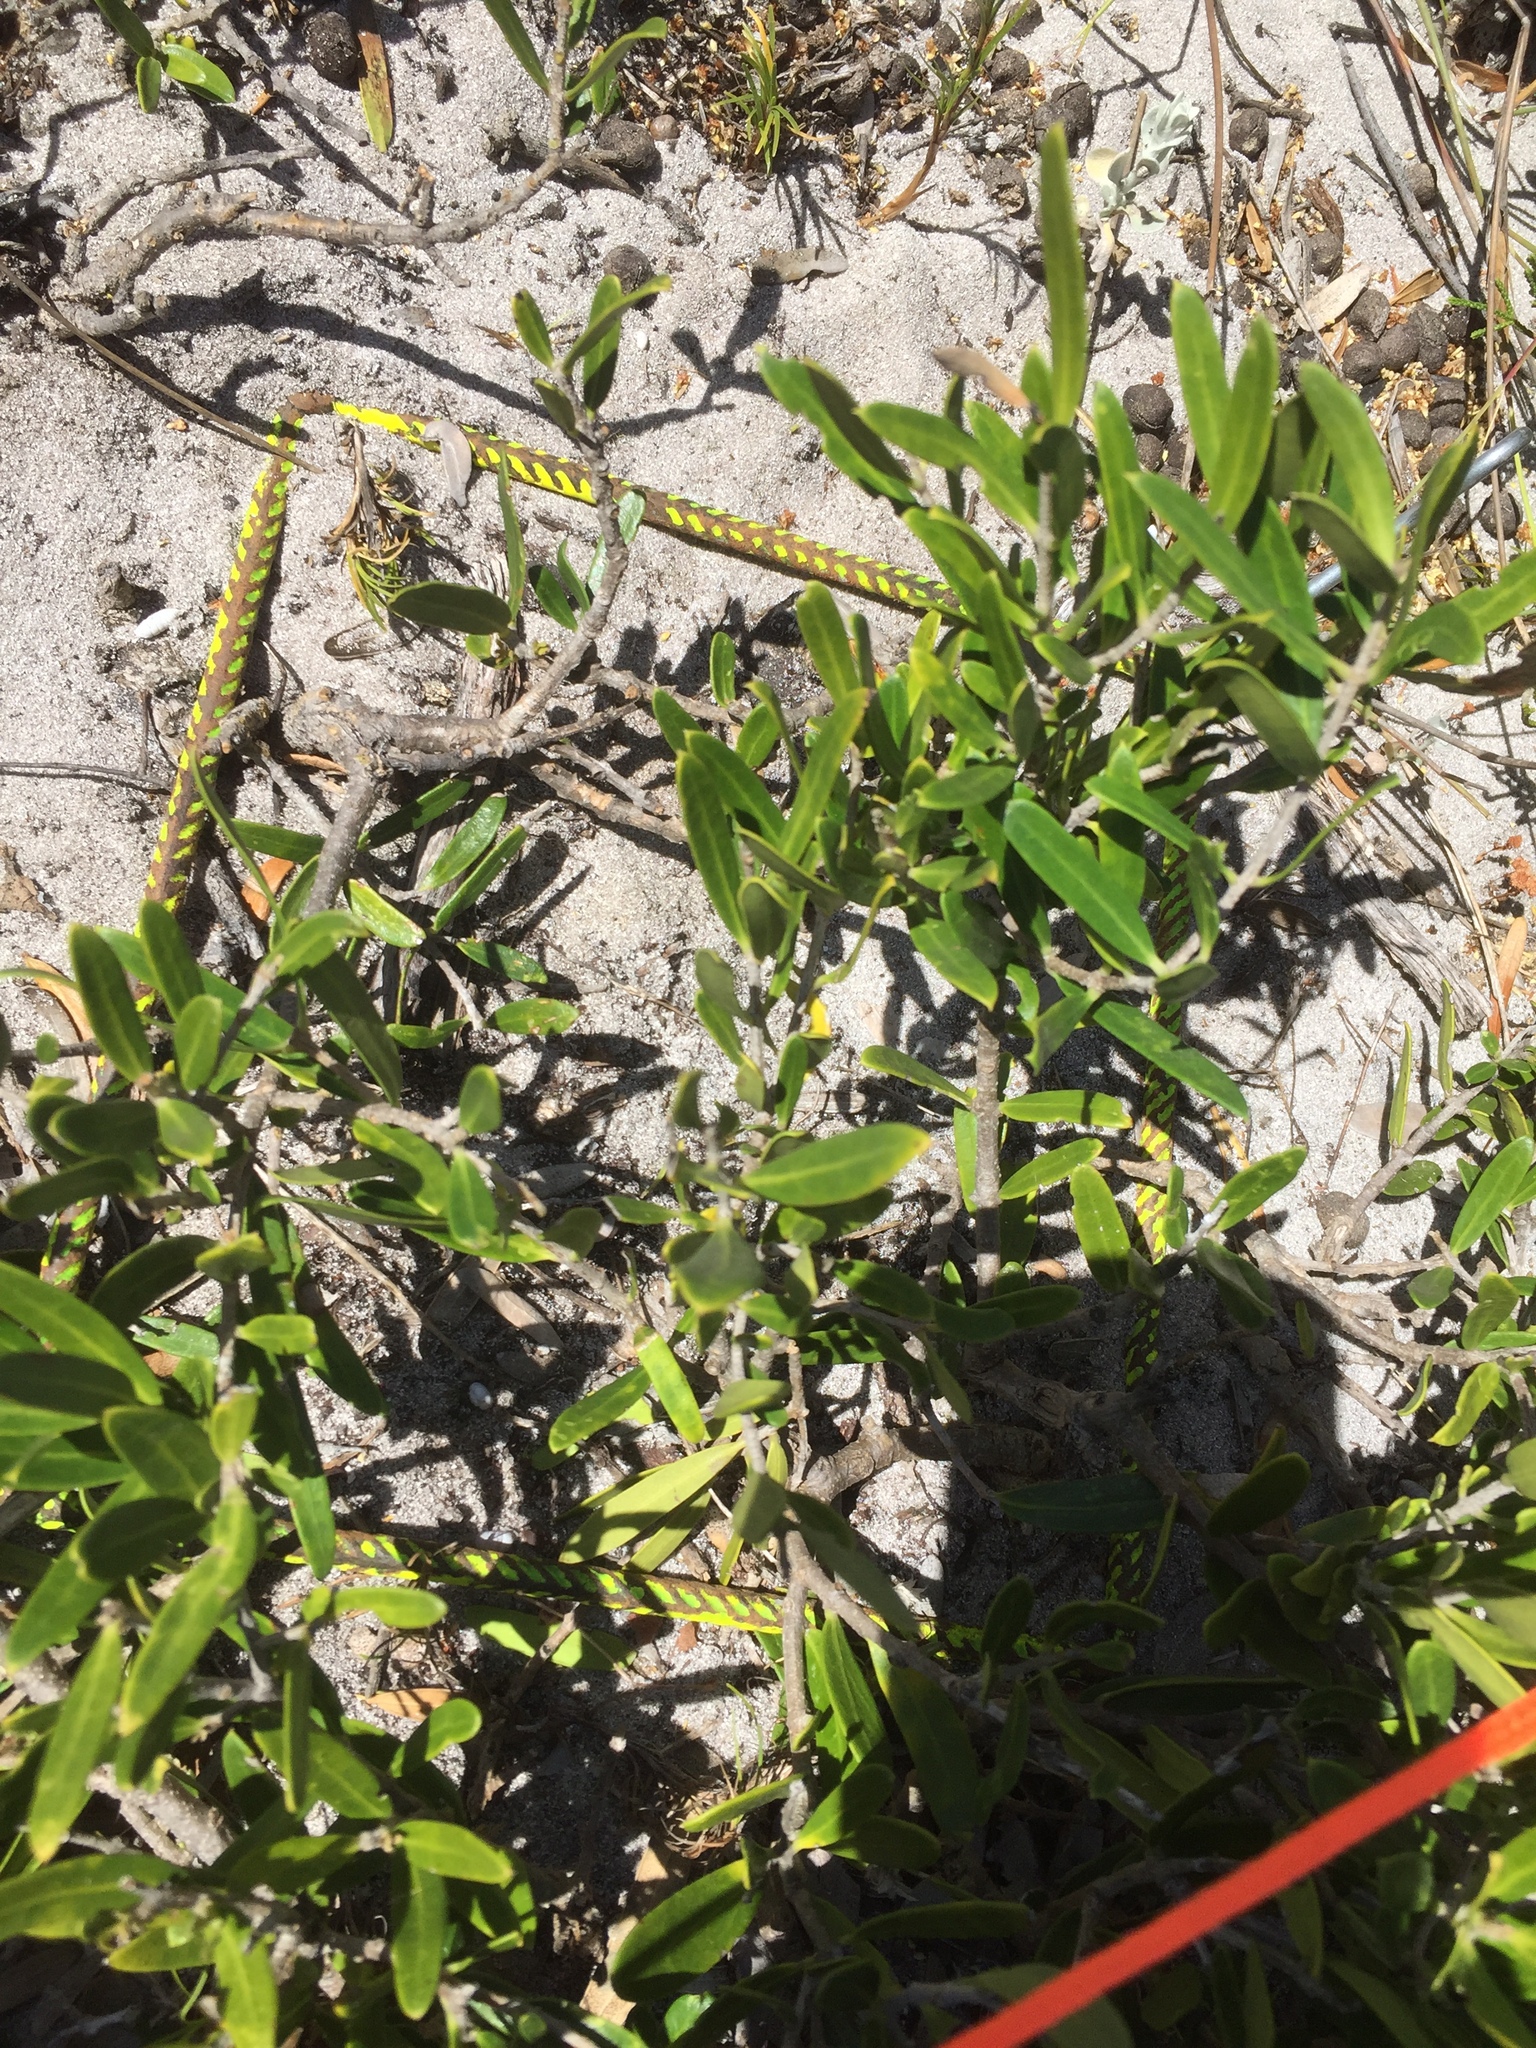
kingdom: Plantae
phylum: Tracheophyta
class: Magnoliopsida
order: Lamiales
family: Oleaceae
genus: Olea
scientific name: Olea exasperata
